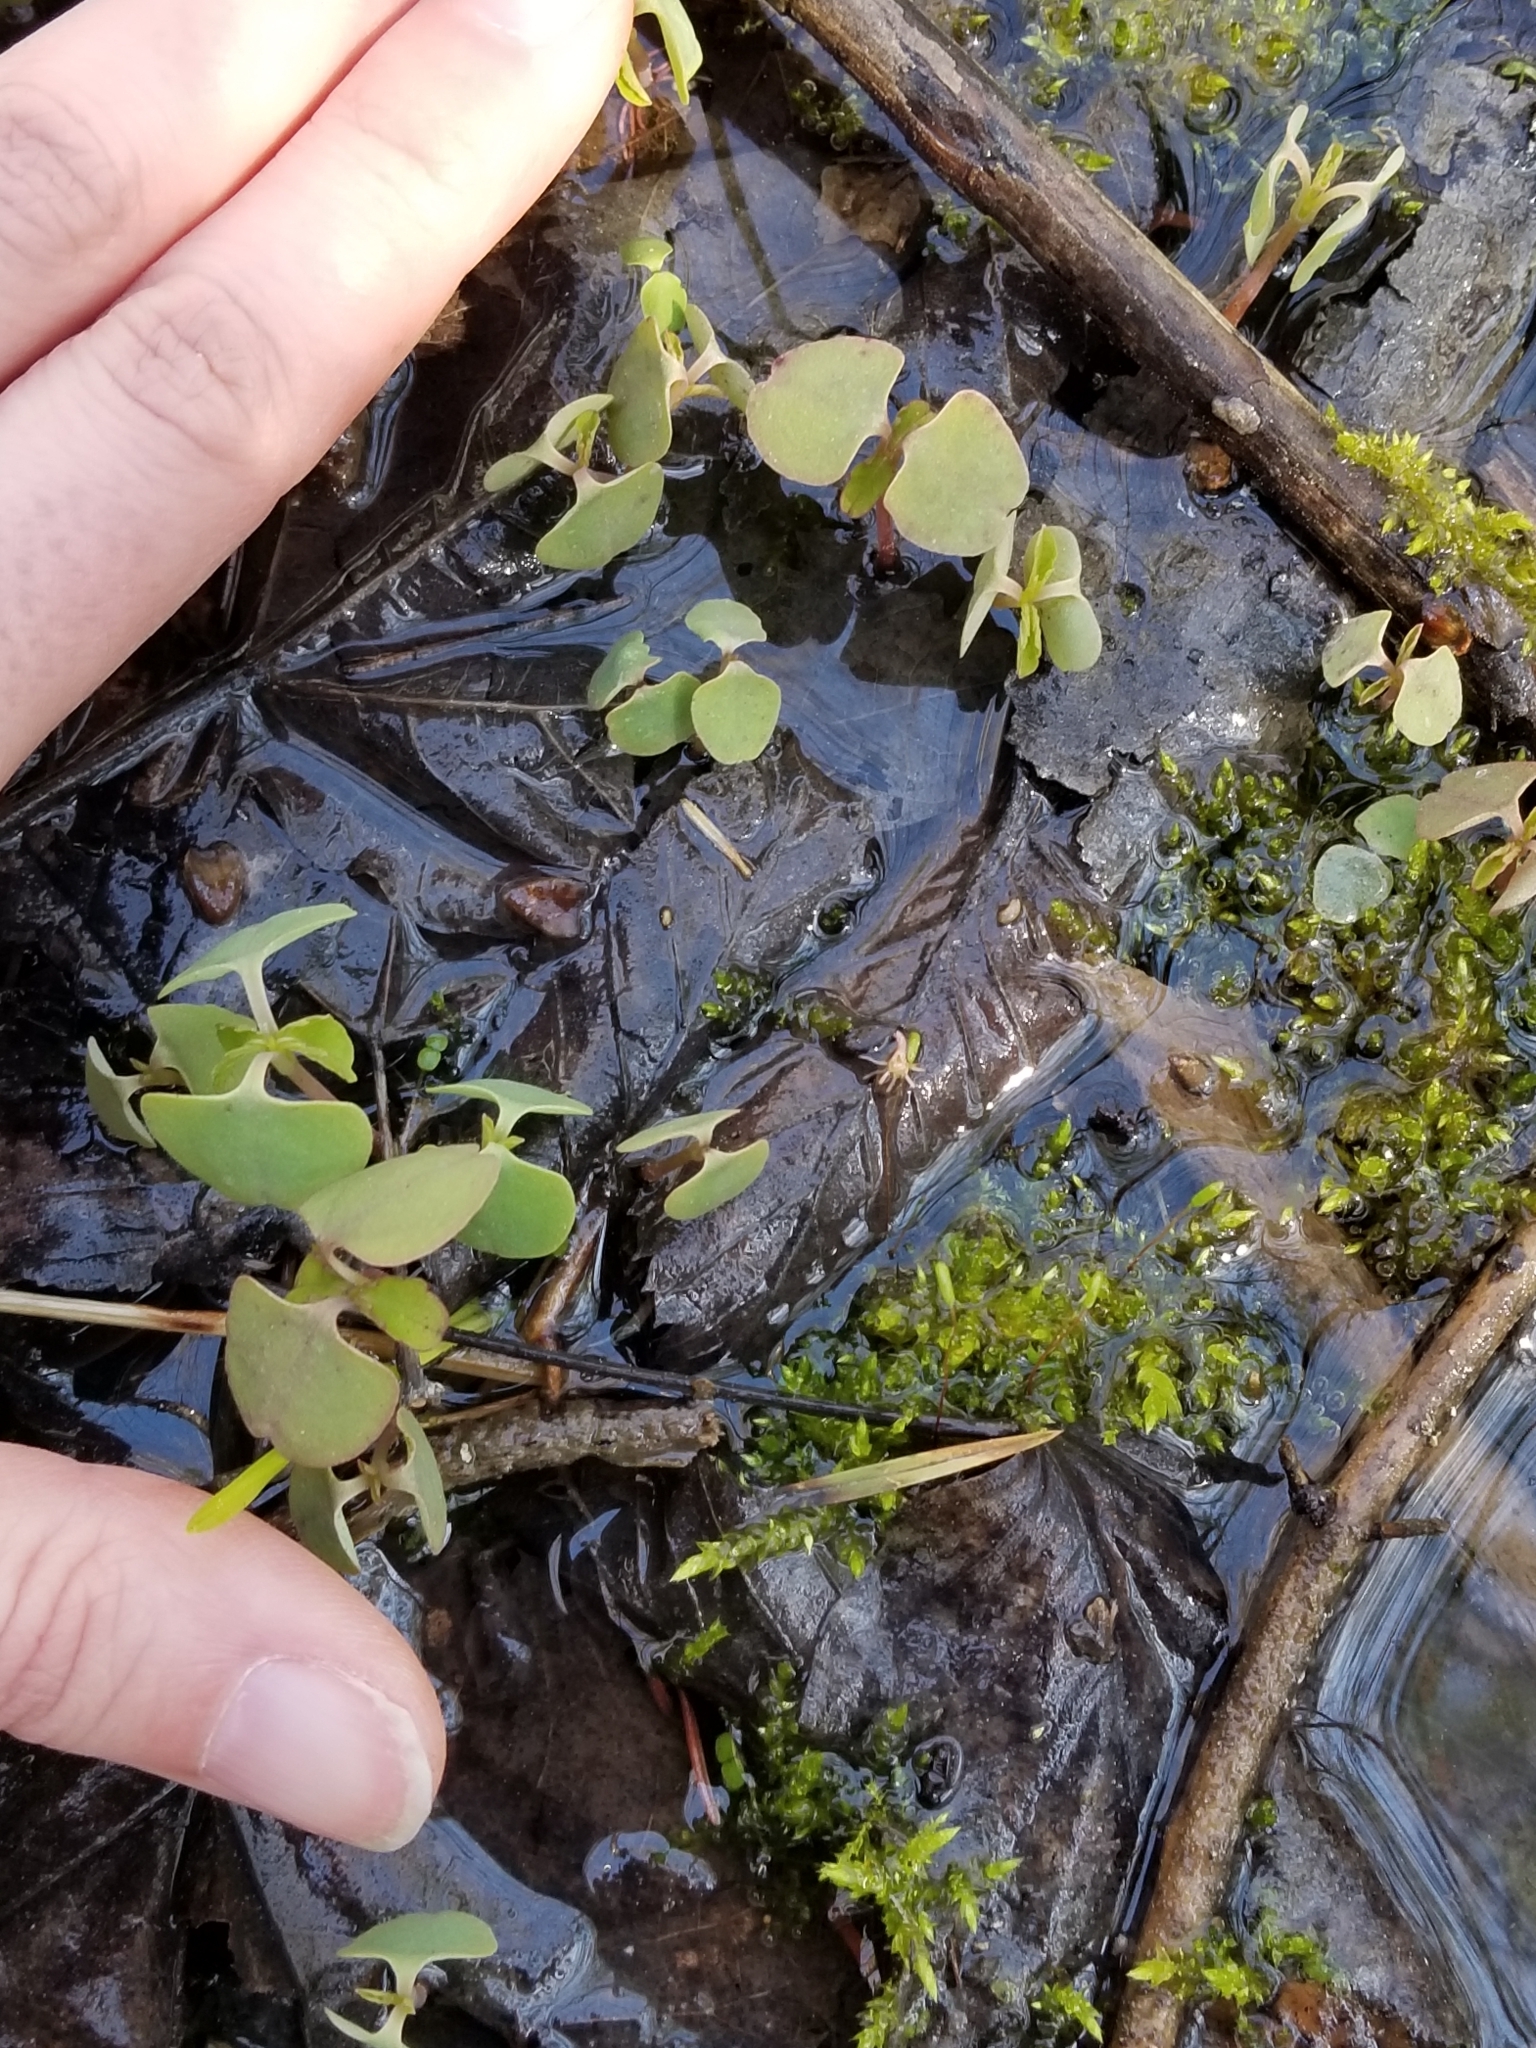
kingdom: Plantae
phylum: Tracheophyta
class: Magnoliopsida
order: Ericales
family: Balsaminaceae
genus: Impatiens
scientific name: Impatiens capensis
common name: Orange balsam
